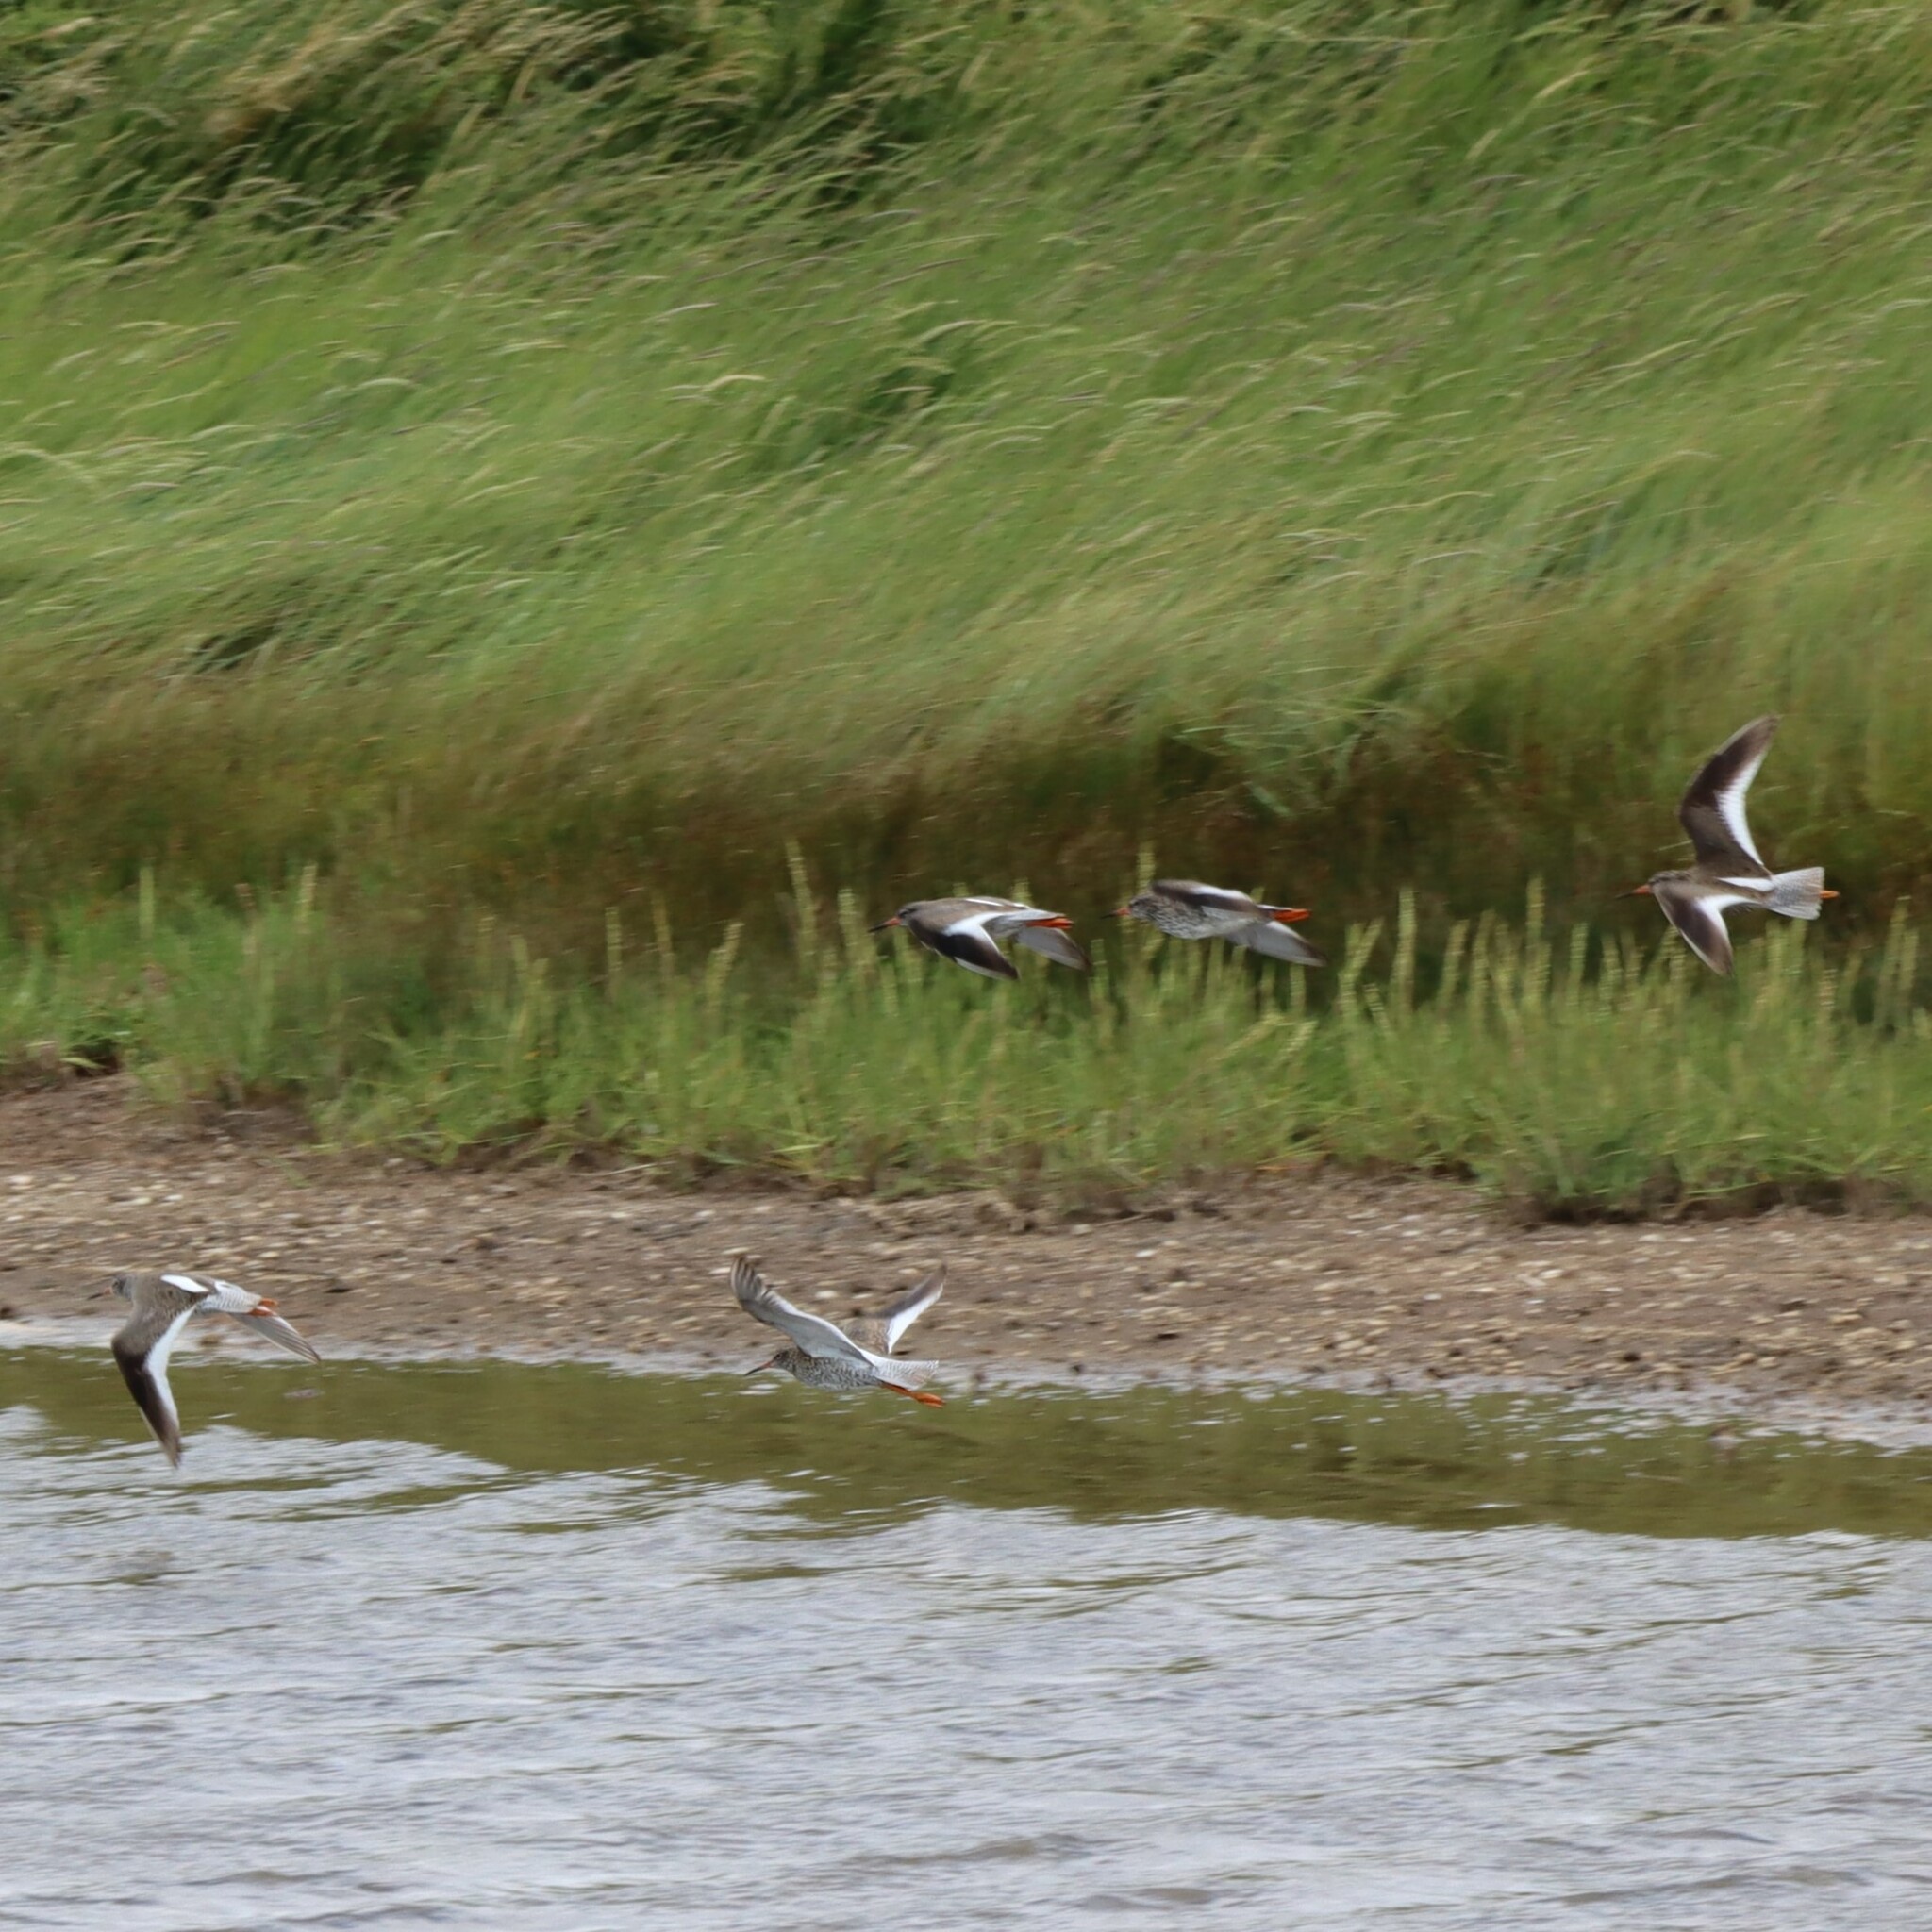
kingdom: Animalia
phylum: Chordata
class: Aves
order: Charadriiformes
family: Scolopacidae
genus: Tringa
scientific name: Tringa totanus
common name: Common redshank
